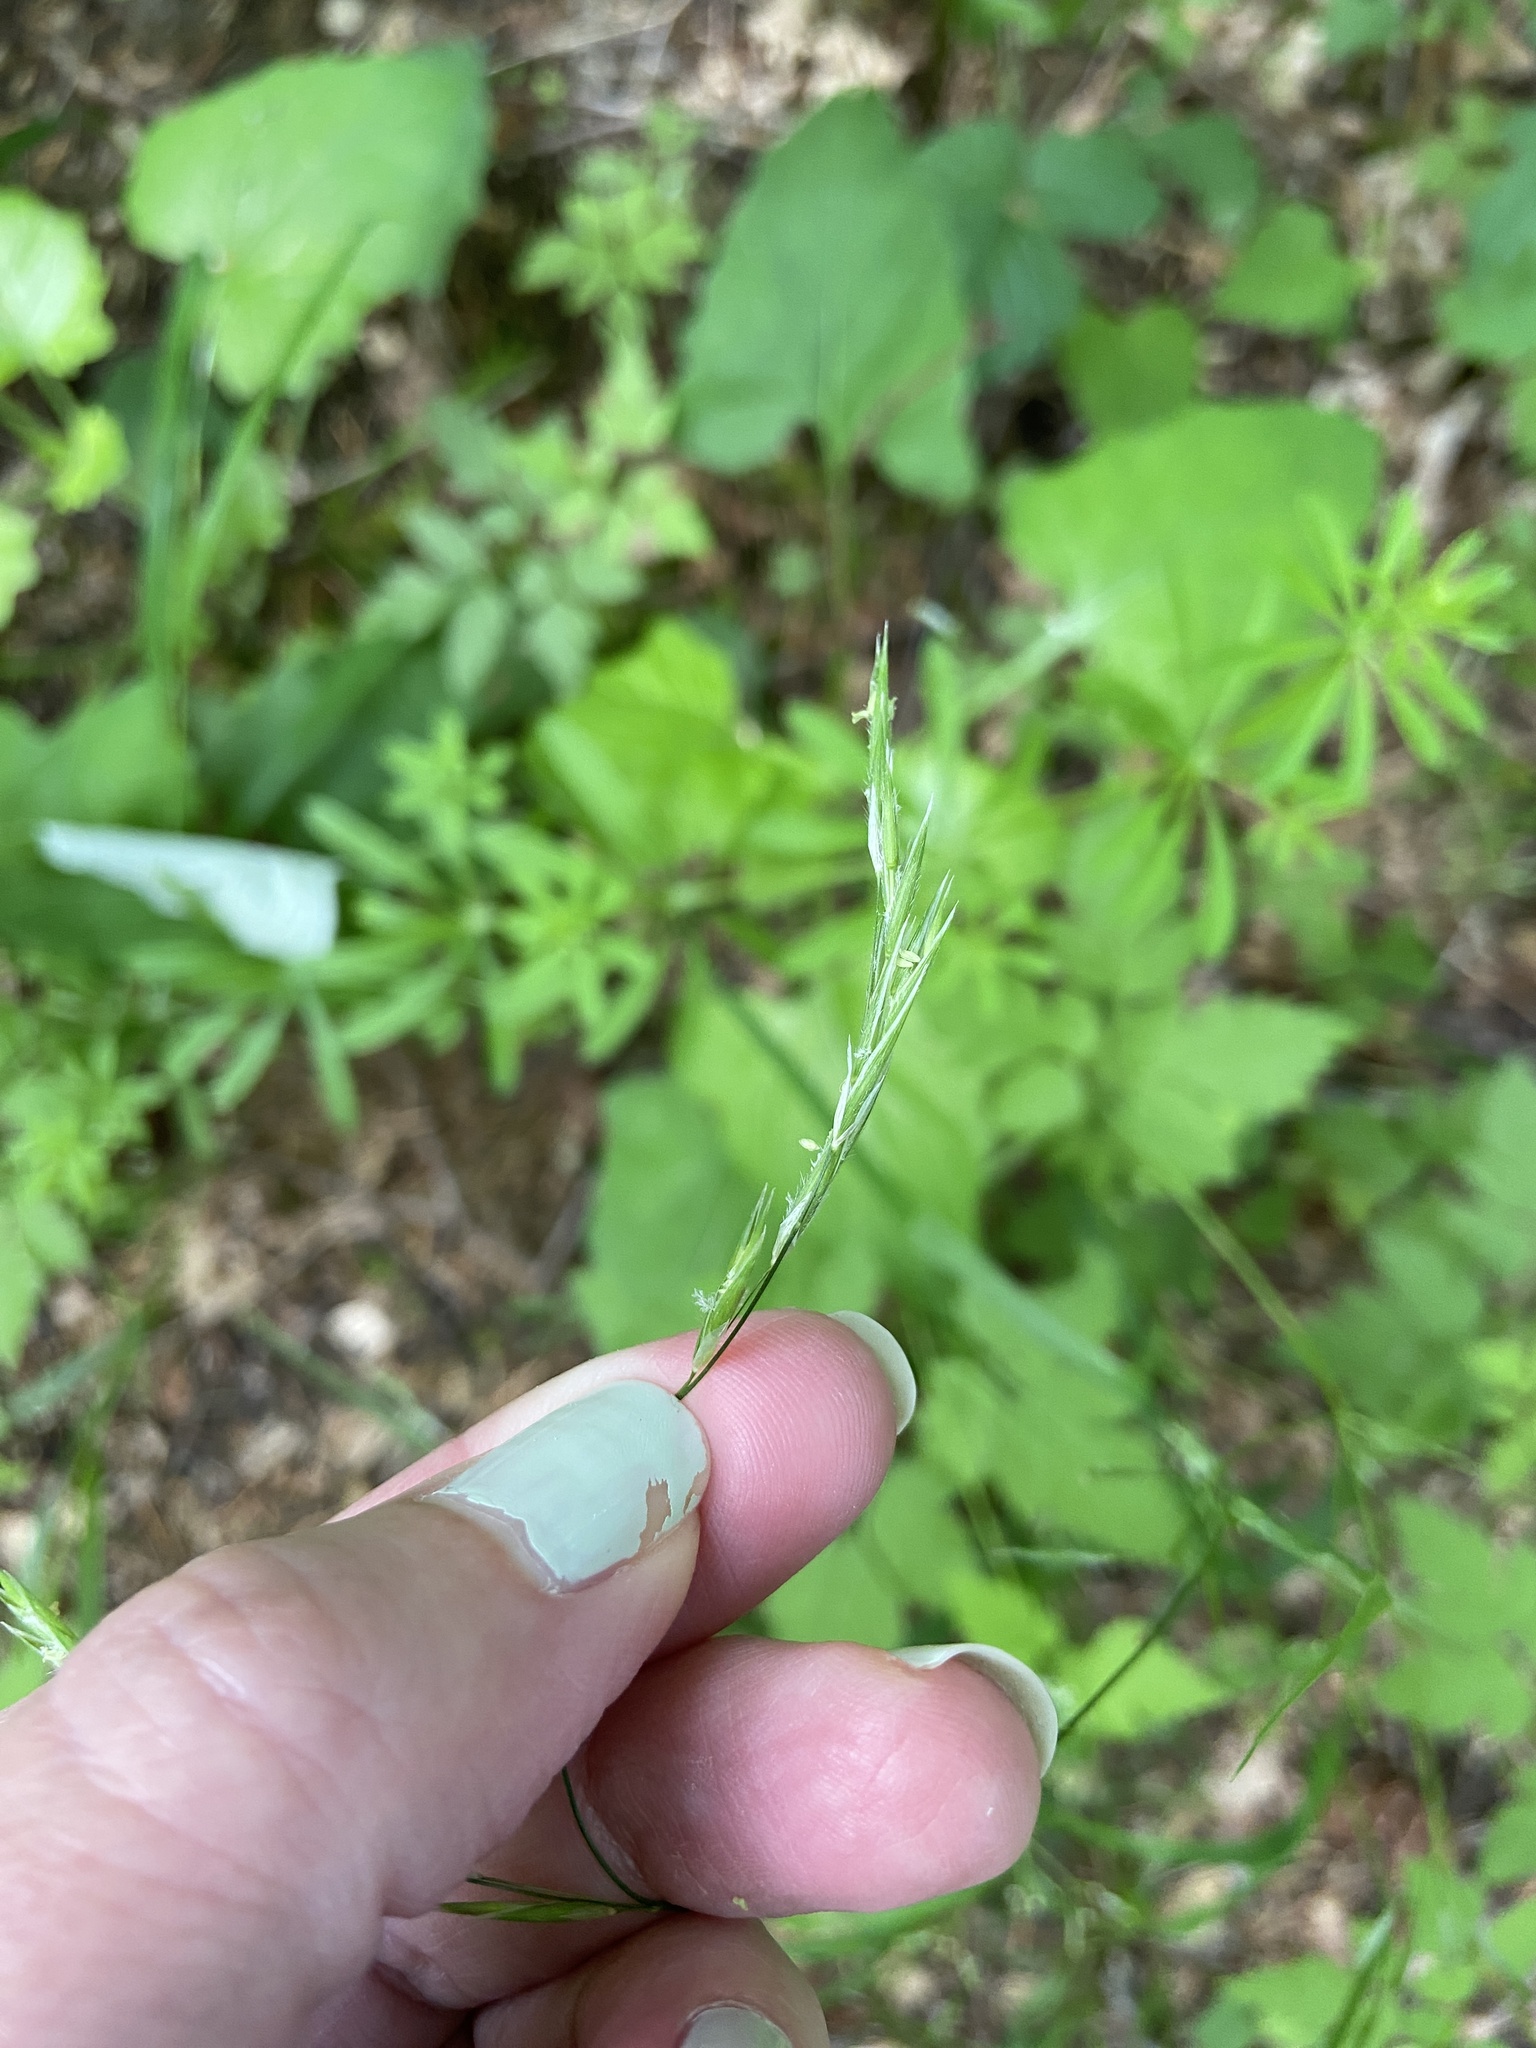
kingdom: Plantae
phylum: Tracheophyta
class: Liliopsida
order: Poales
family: Poaceae
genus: Bromus
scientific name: Bromus vulgaris
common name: Columbia brome
